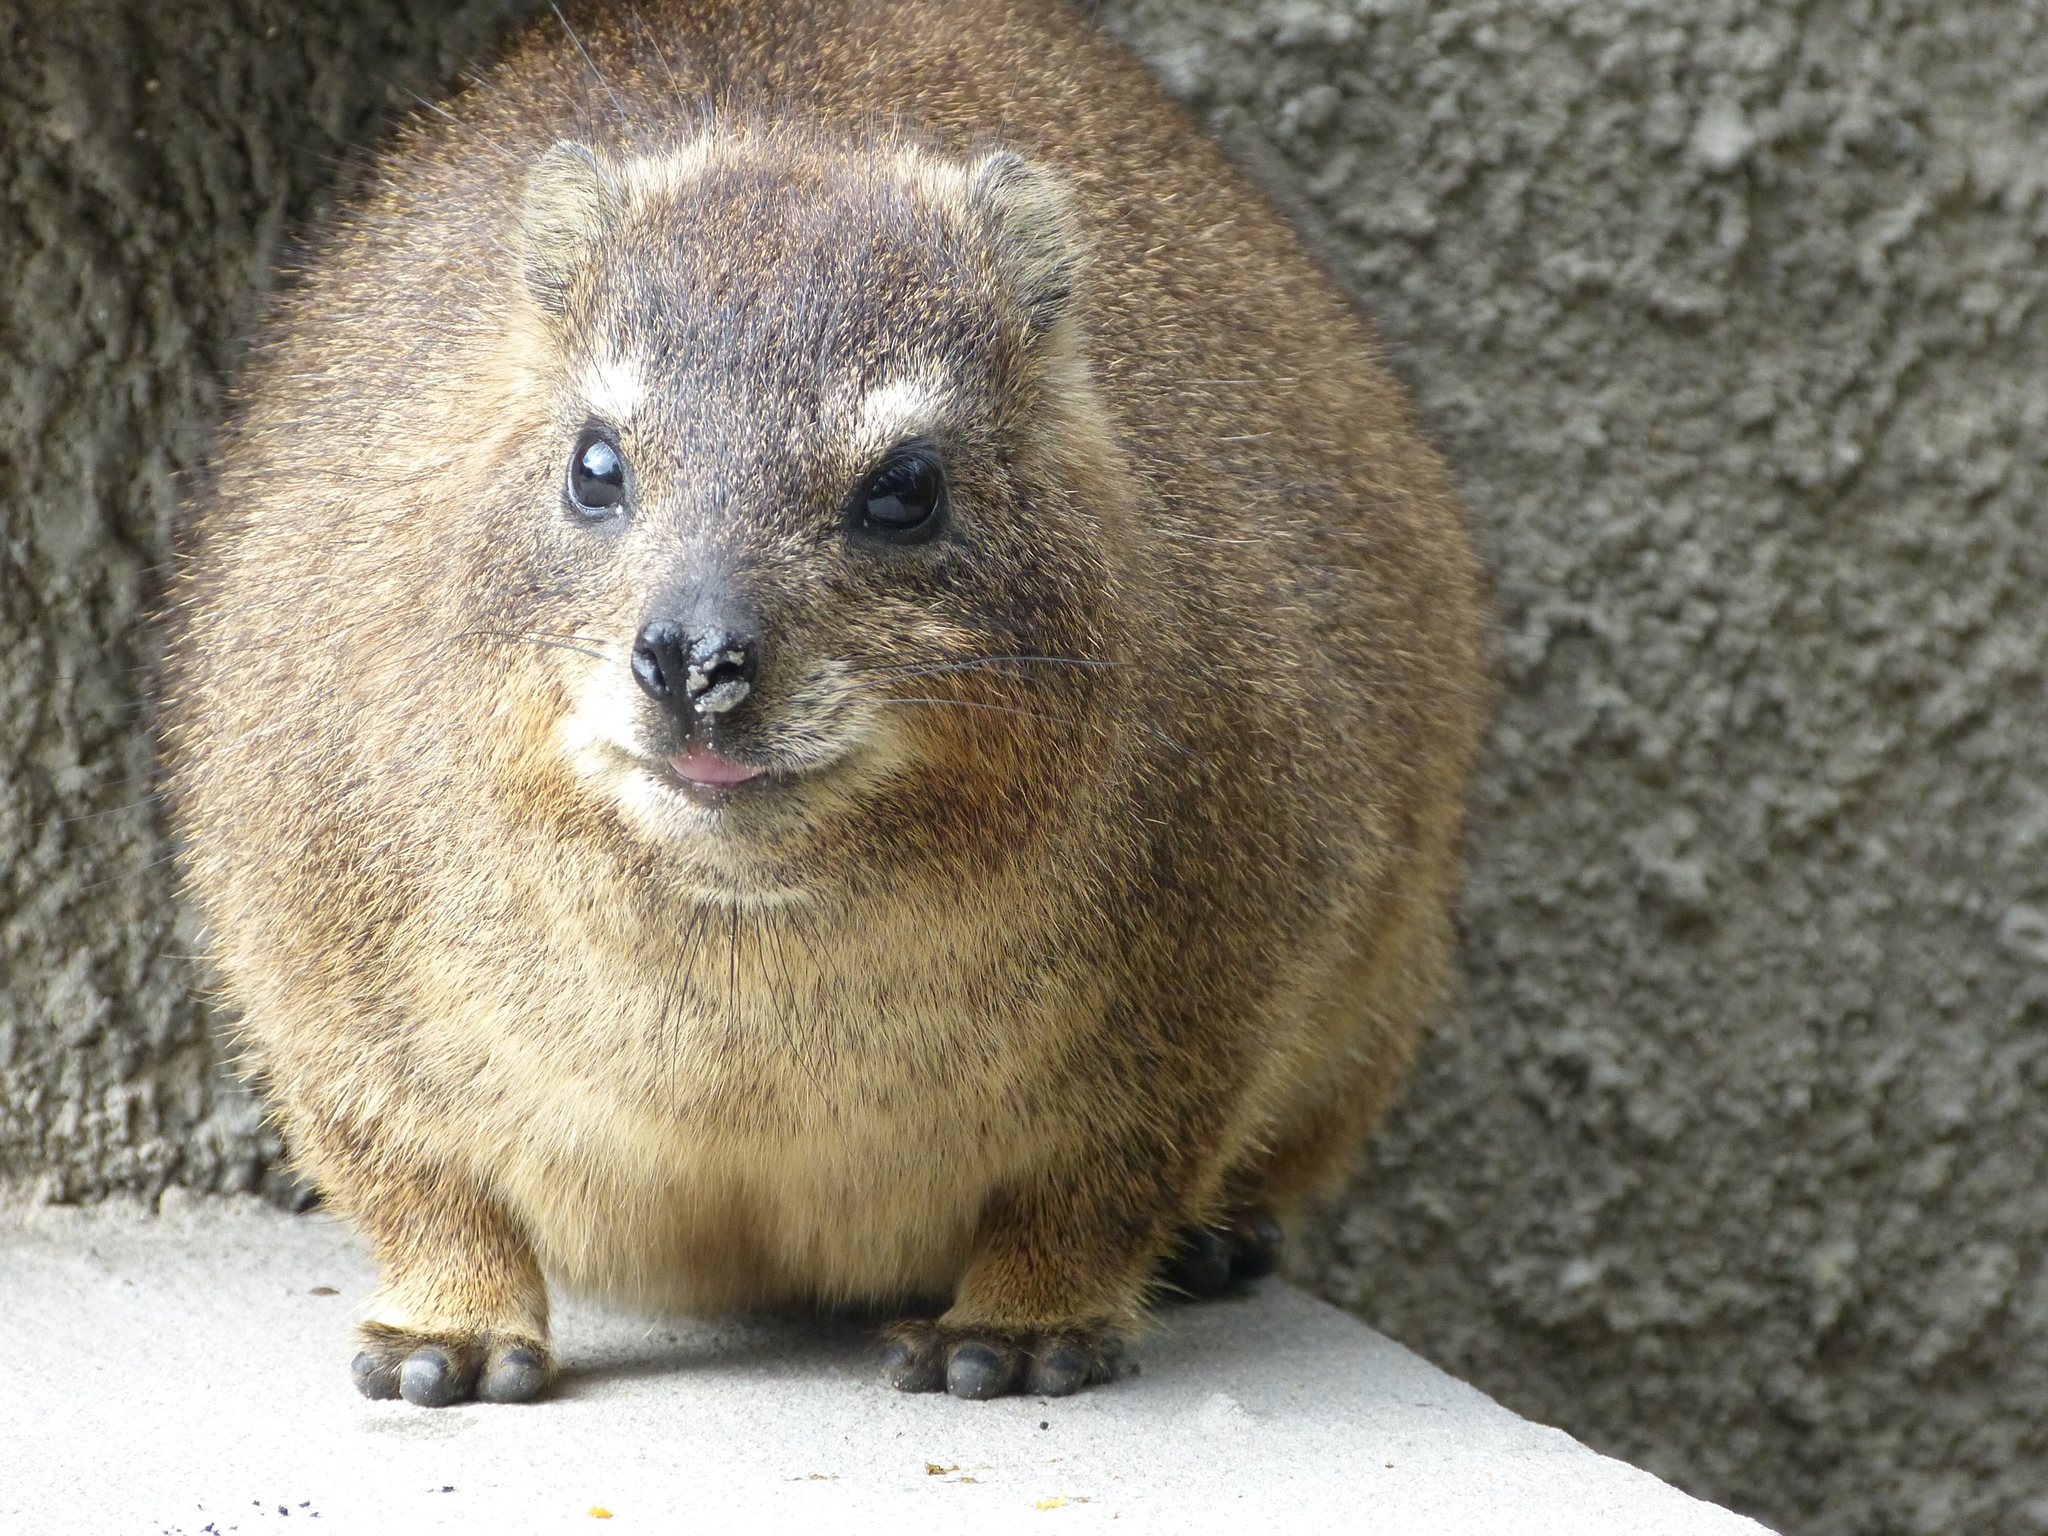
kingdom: Animalia
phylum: Chordata
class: Mammalia
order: Hyracoidea
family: Procaviidae
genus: Procavia
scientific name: Procavia capensis
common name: Rock hyrax
